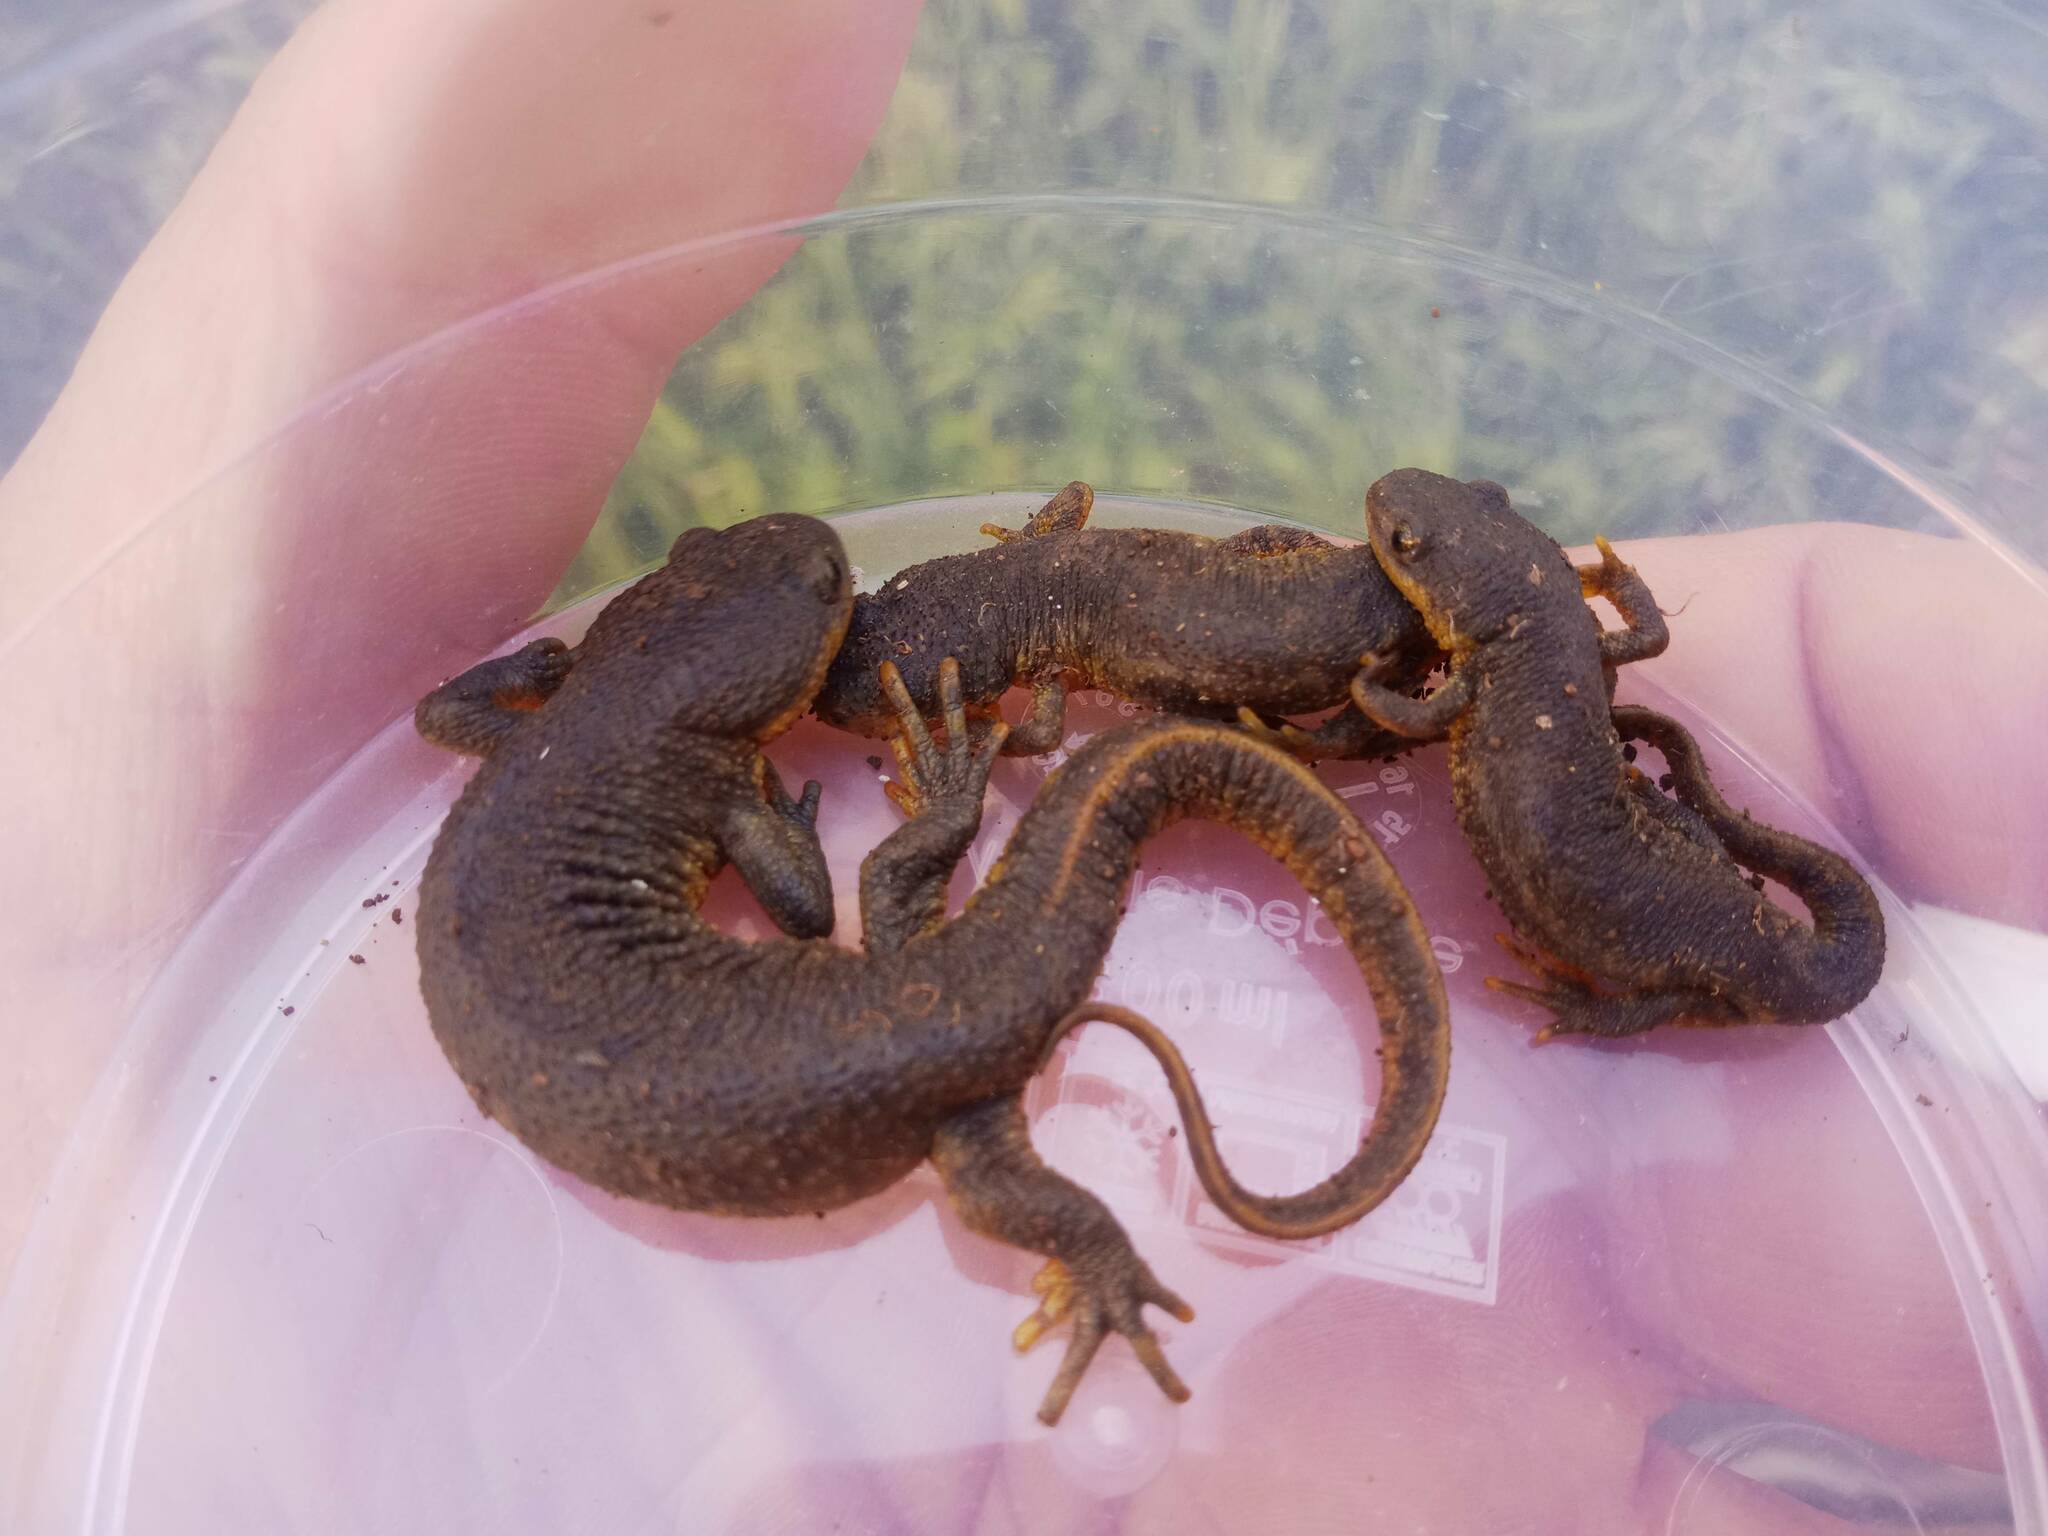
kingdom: Animalia
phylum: Chordata
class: Amphibia
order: Caudata
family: Salamandridae
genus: Pleurodeles
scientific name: Pleurodeles nebulosus
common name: Algerian ribbed newt
